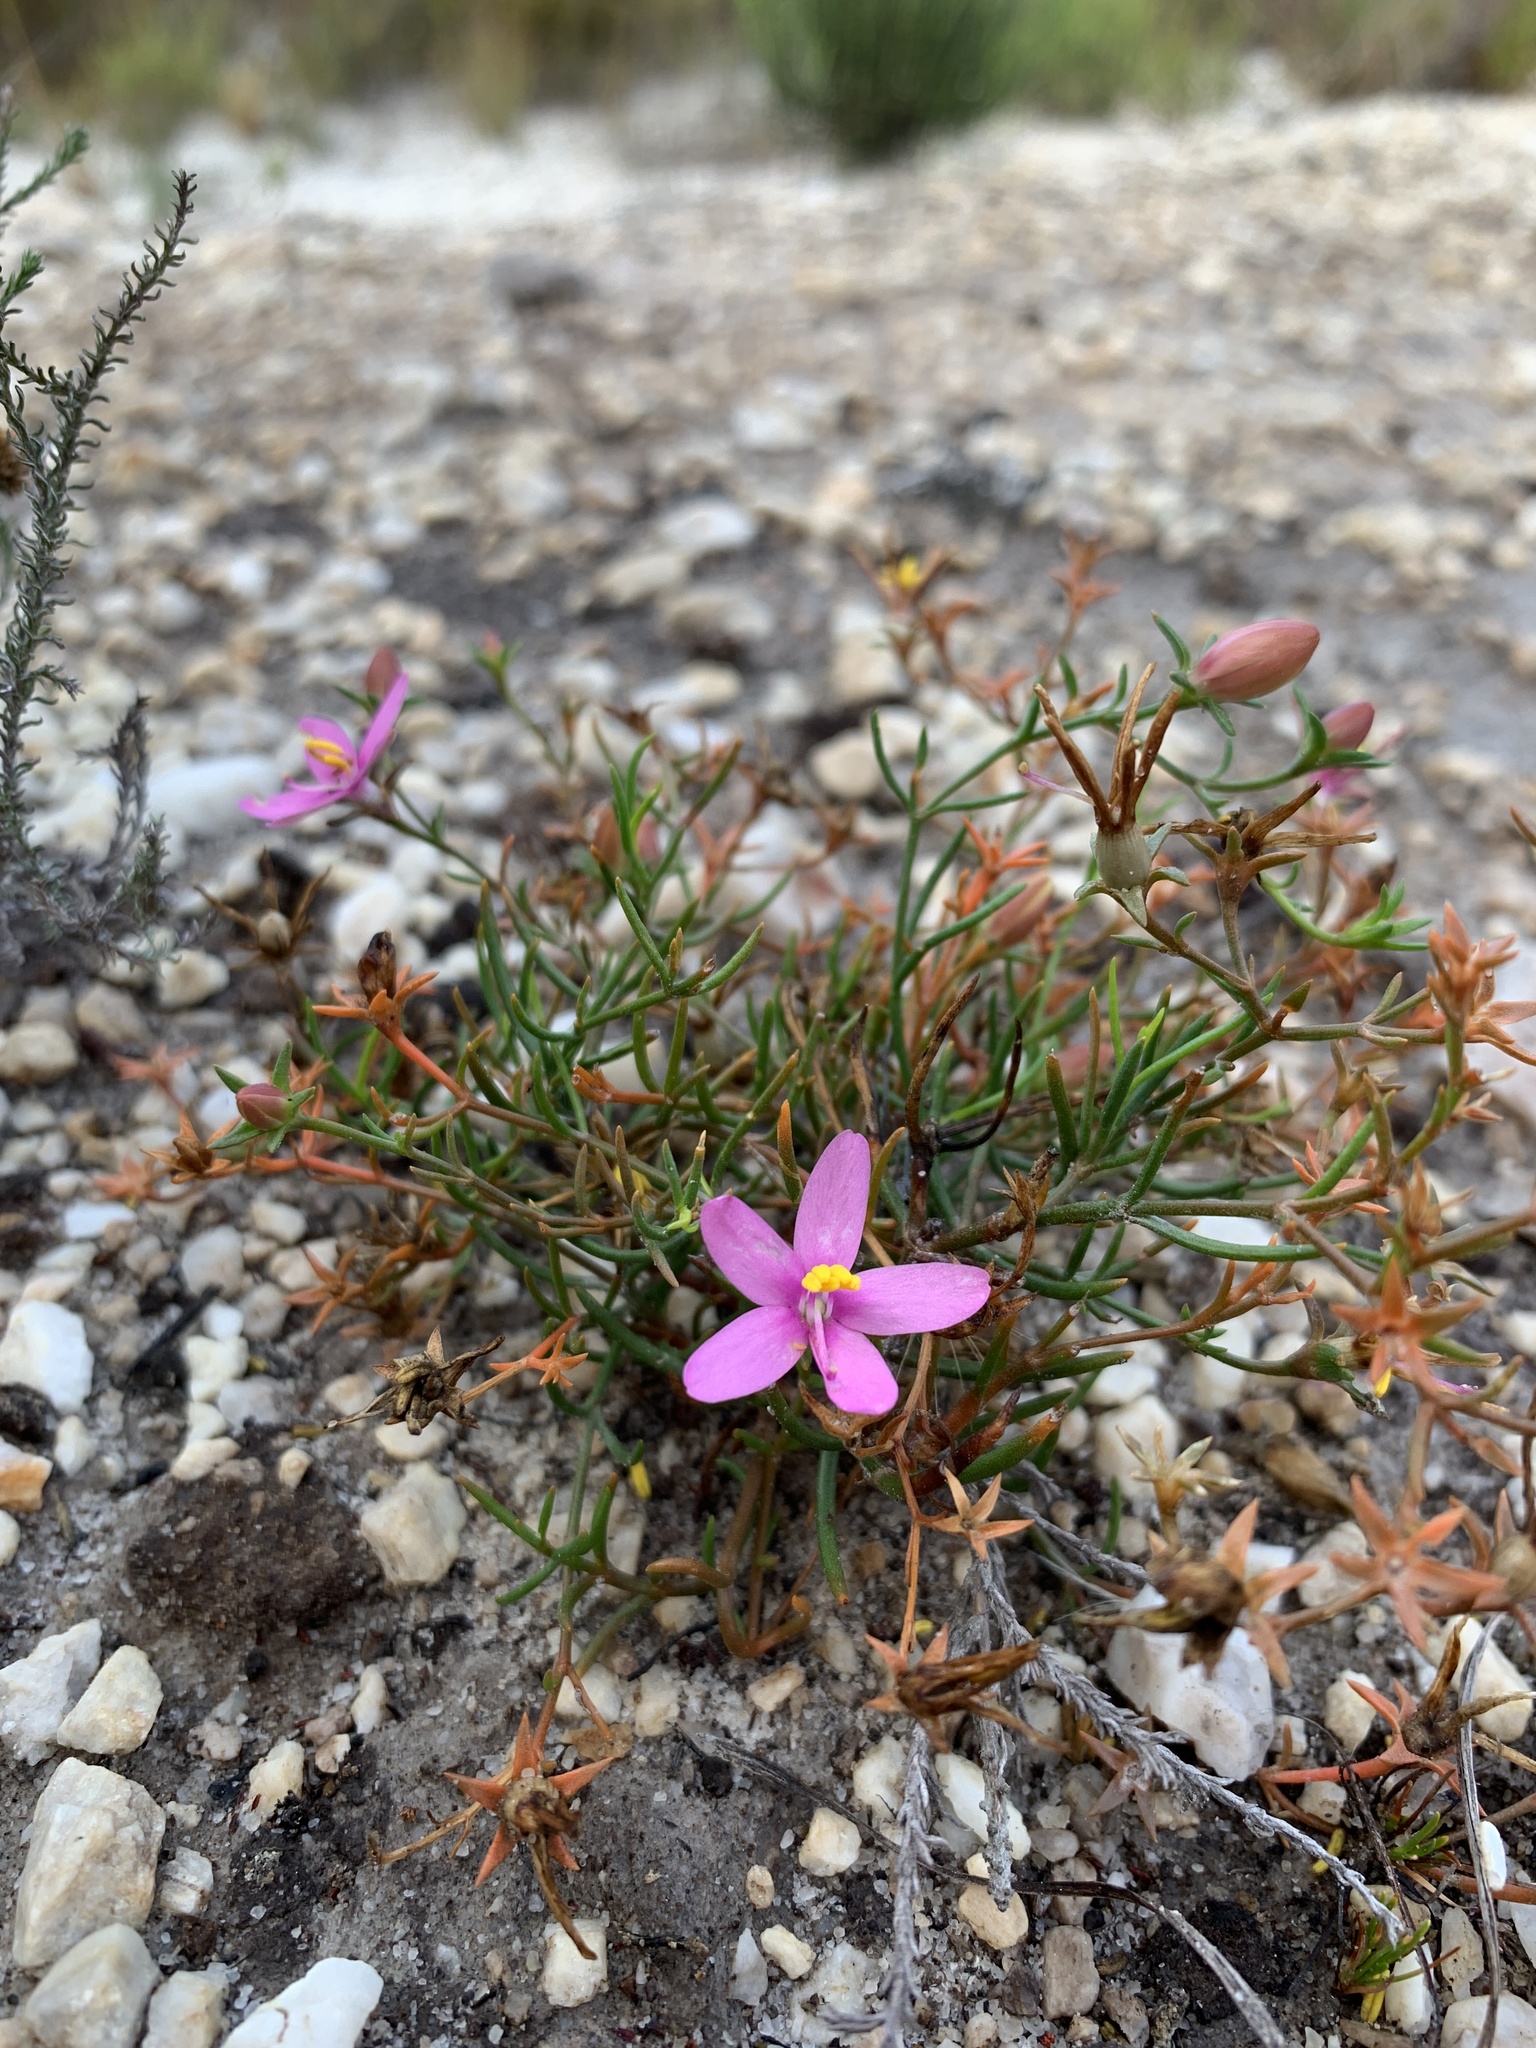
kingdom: Plantae
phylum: Tracheophyta
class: Magnoliopsida
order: Gentianales
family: Gentianaceae
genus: Chironia
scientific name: Chironia linoides
